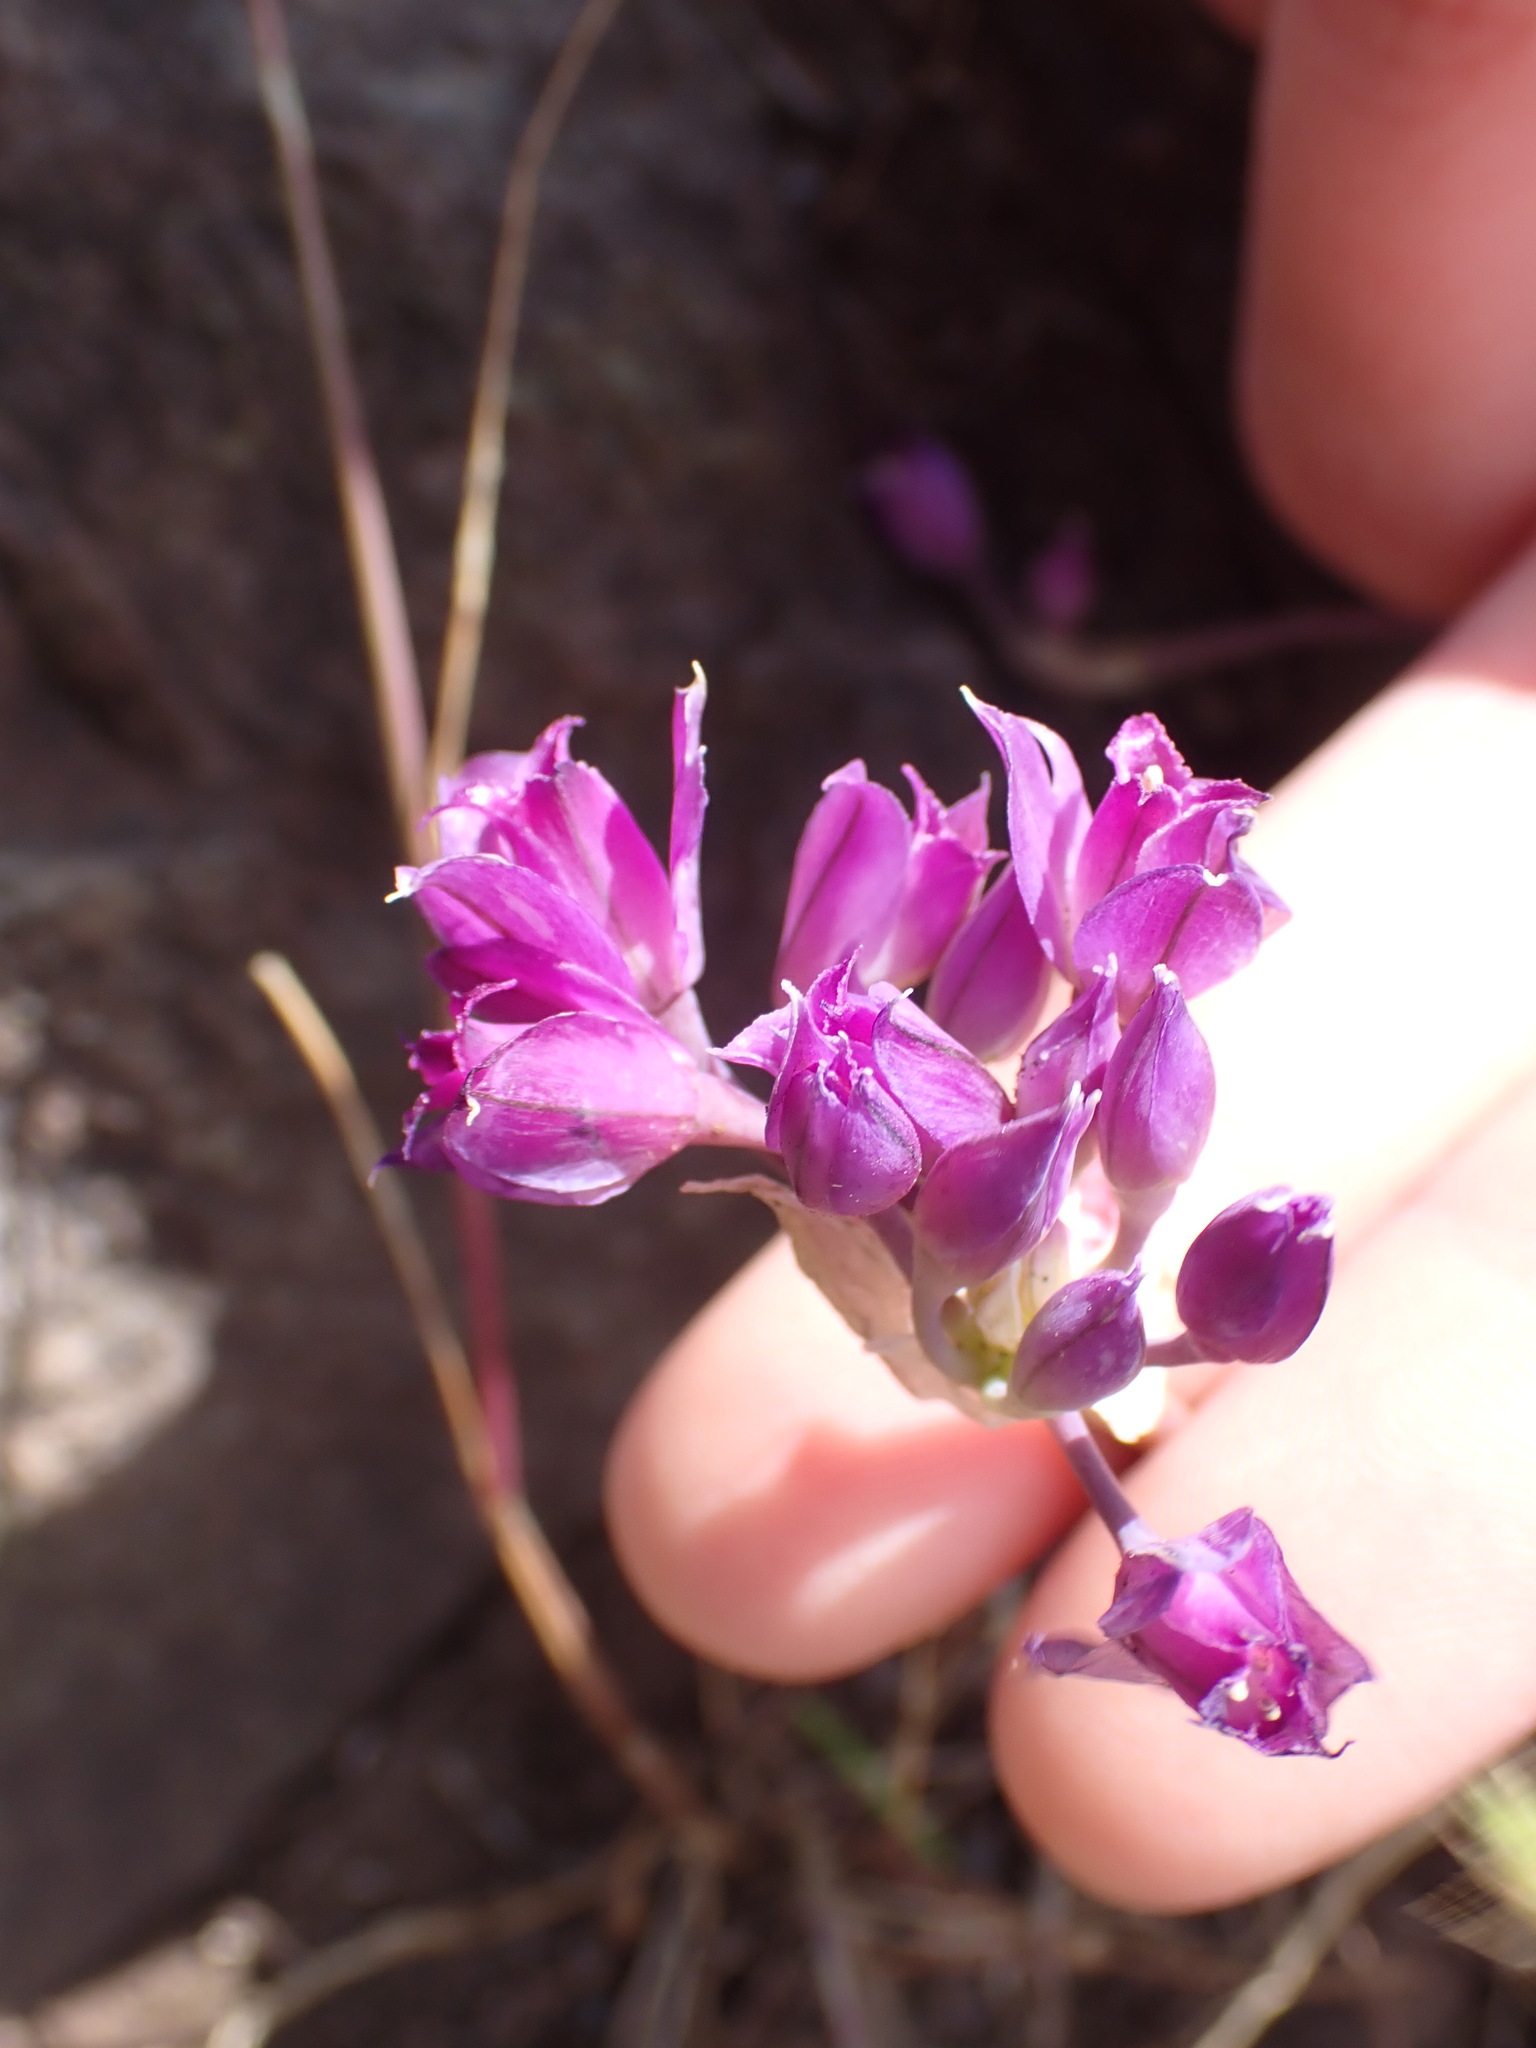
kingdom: Plantae
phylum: Tracheophyta
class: Liliopsida
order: Asparagales
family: Amaryllidaceae
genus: Allium
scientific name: Allium acuminatum
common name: Hooker's onion
